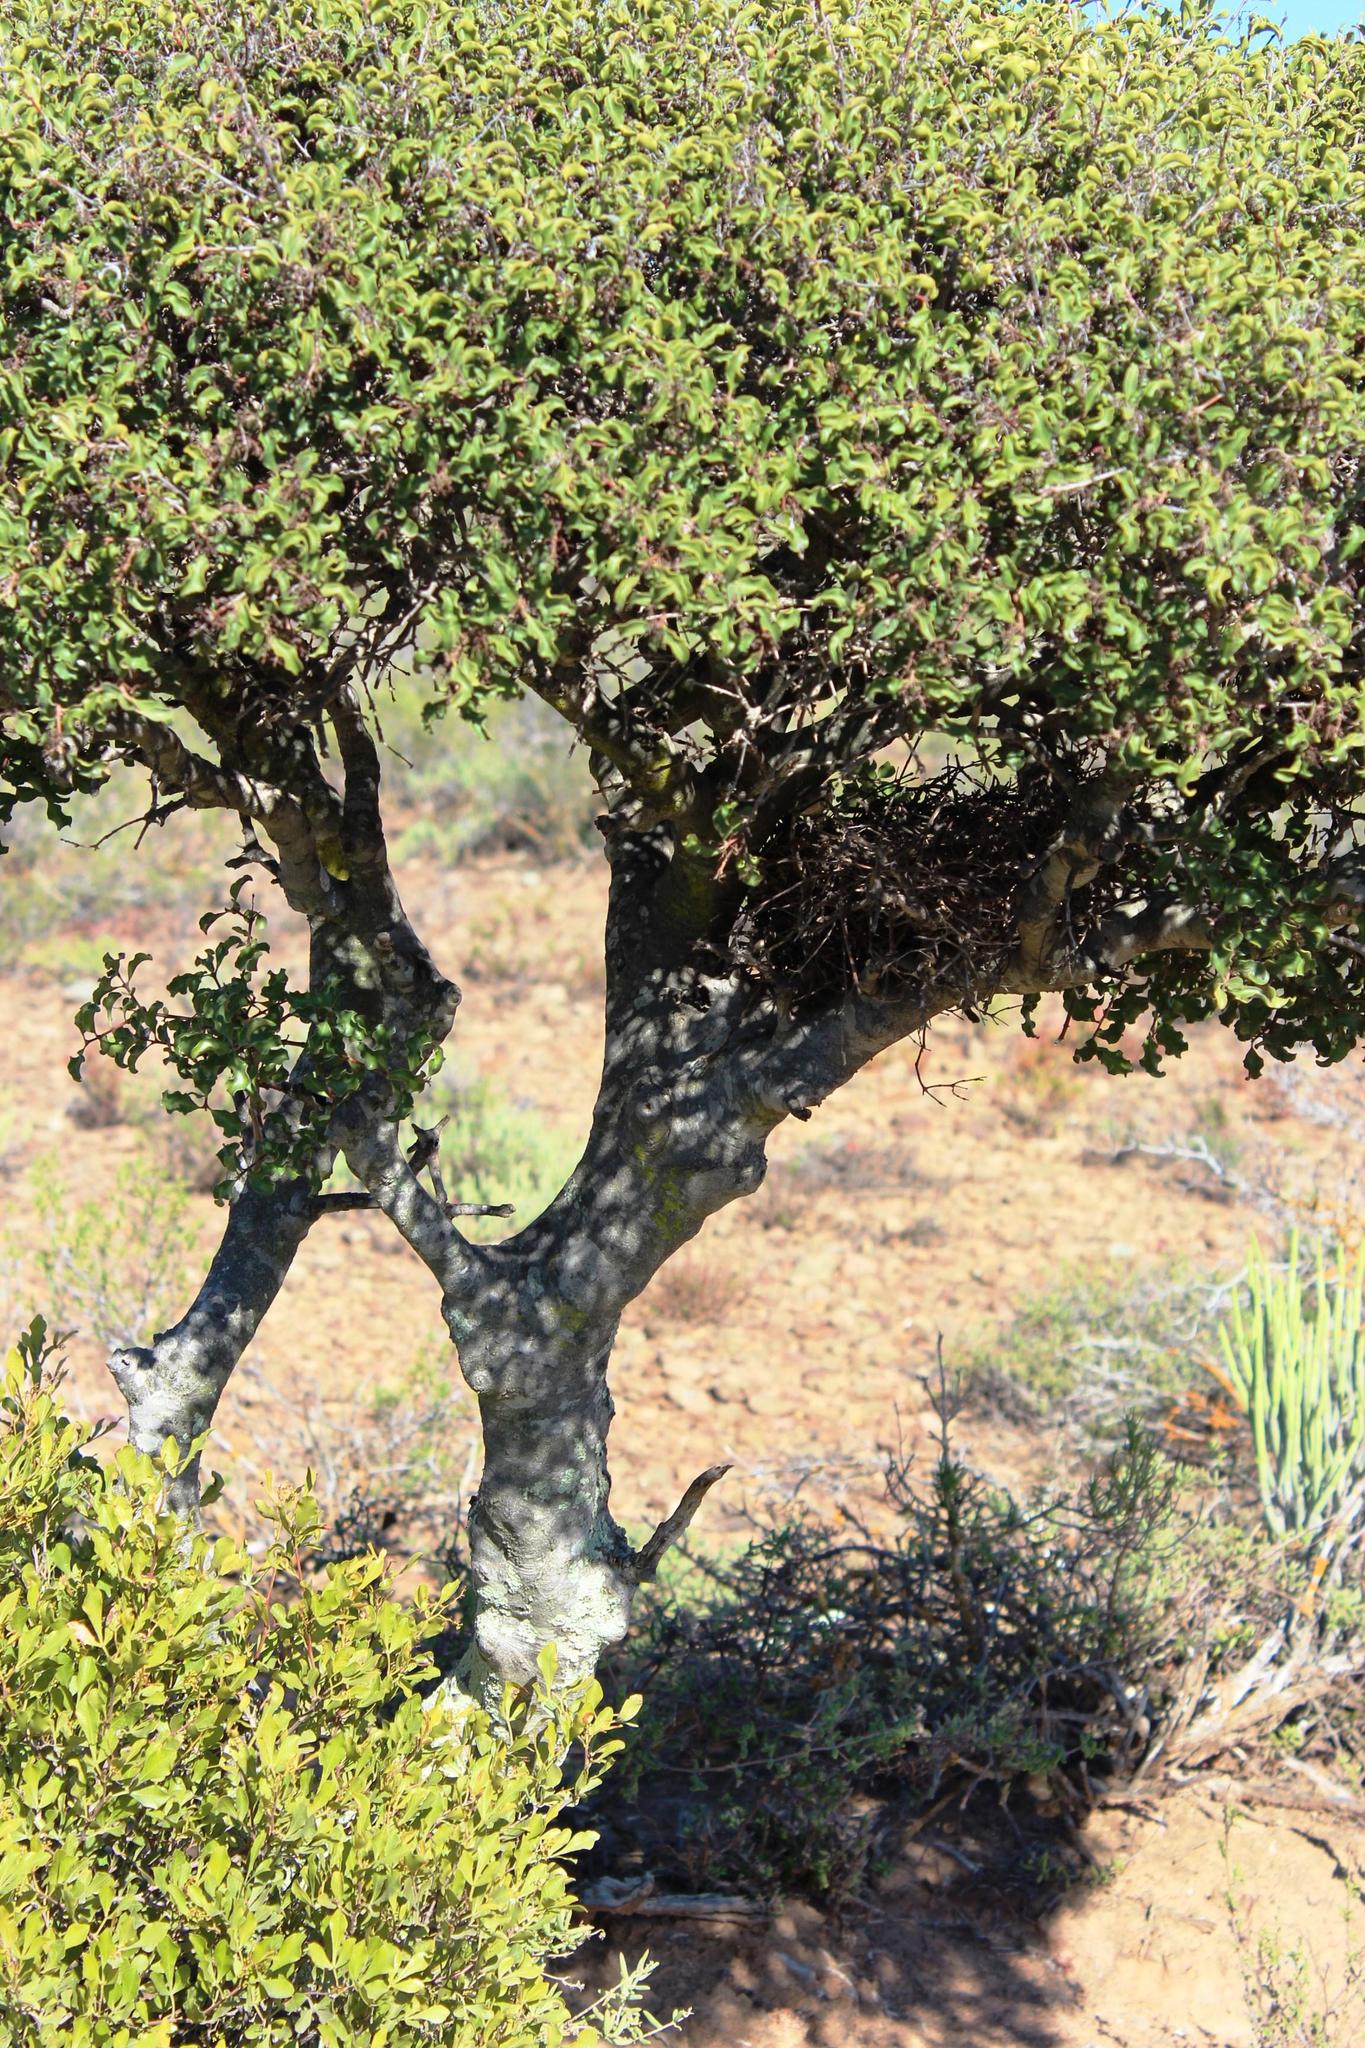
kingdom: Plantae
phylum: Tracheophyta
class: Magnoliopsida
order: Ericales
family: Ebenaceae
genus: Euclea
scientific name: Euclea undulata
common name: Small-leaved guarri
